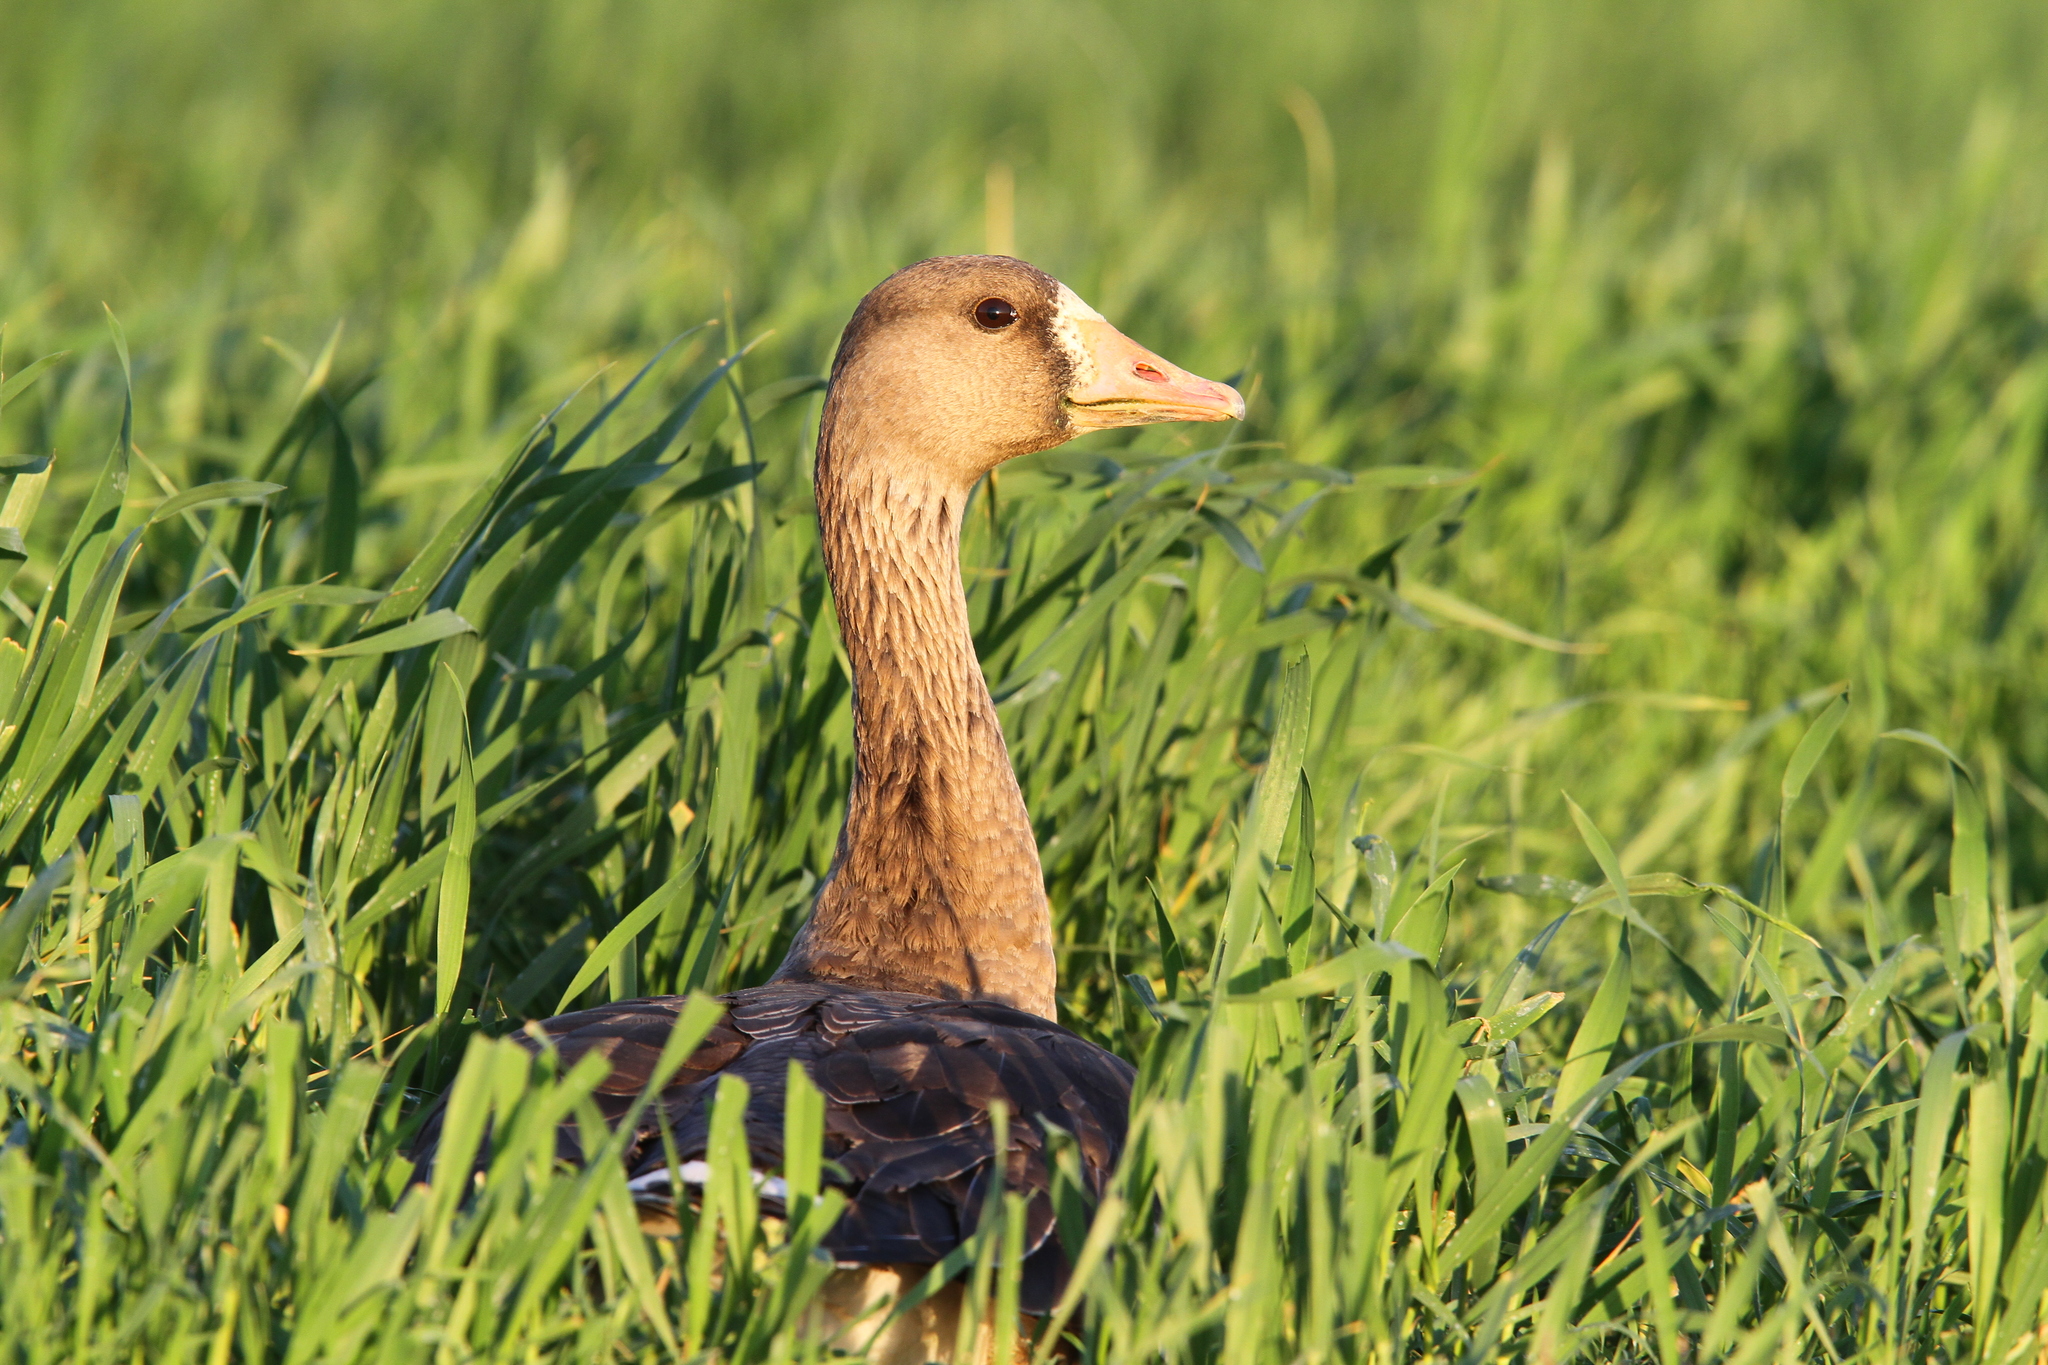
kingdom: Animalia
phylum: Chordata
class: Aves
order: Anseriformes
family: Anatidae
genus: Anser
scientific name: Anser albifrons
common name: Greater white-fronted goose
